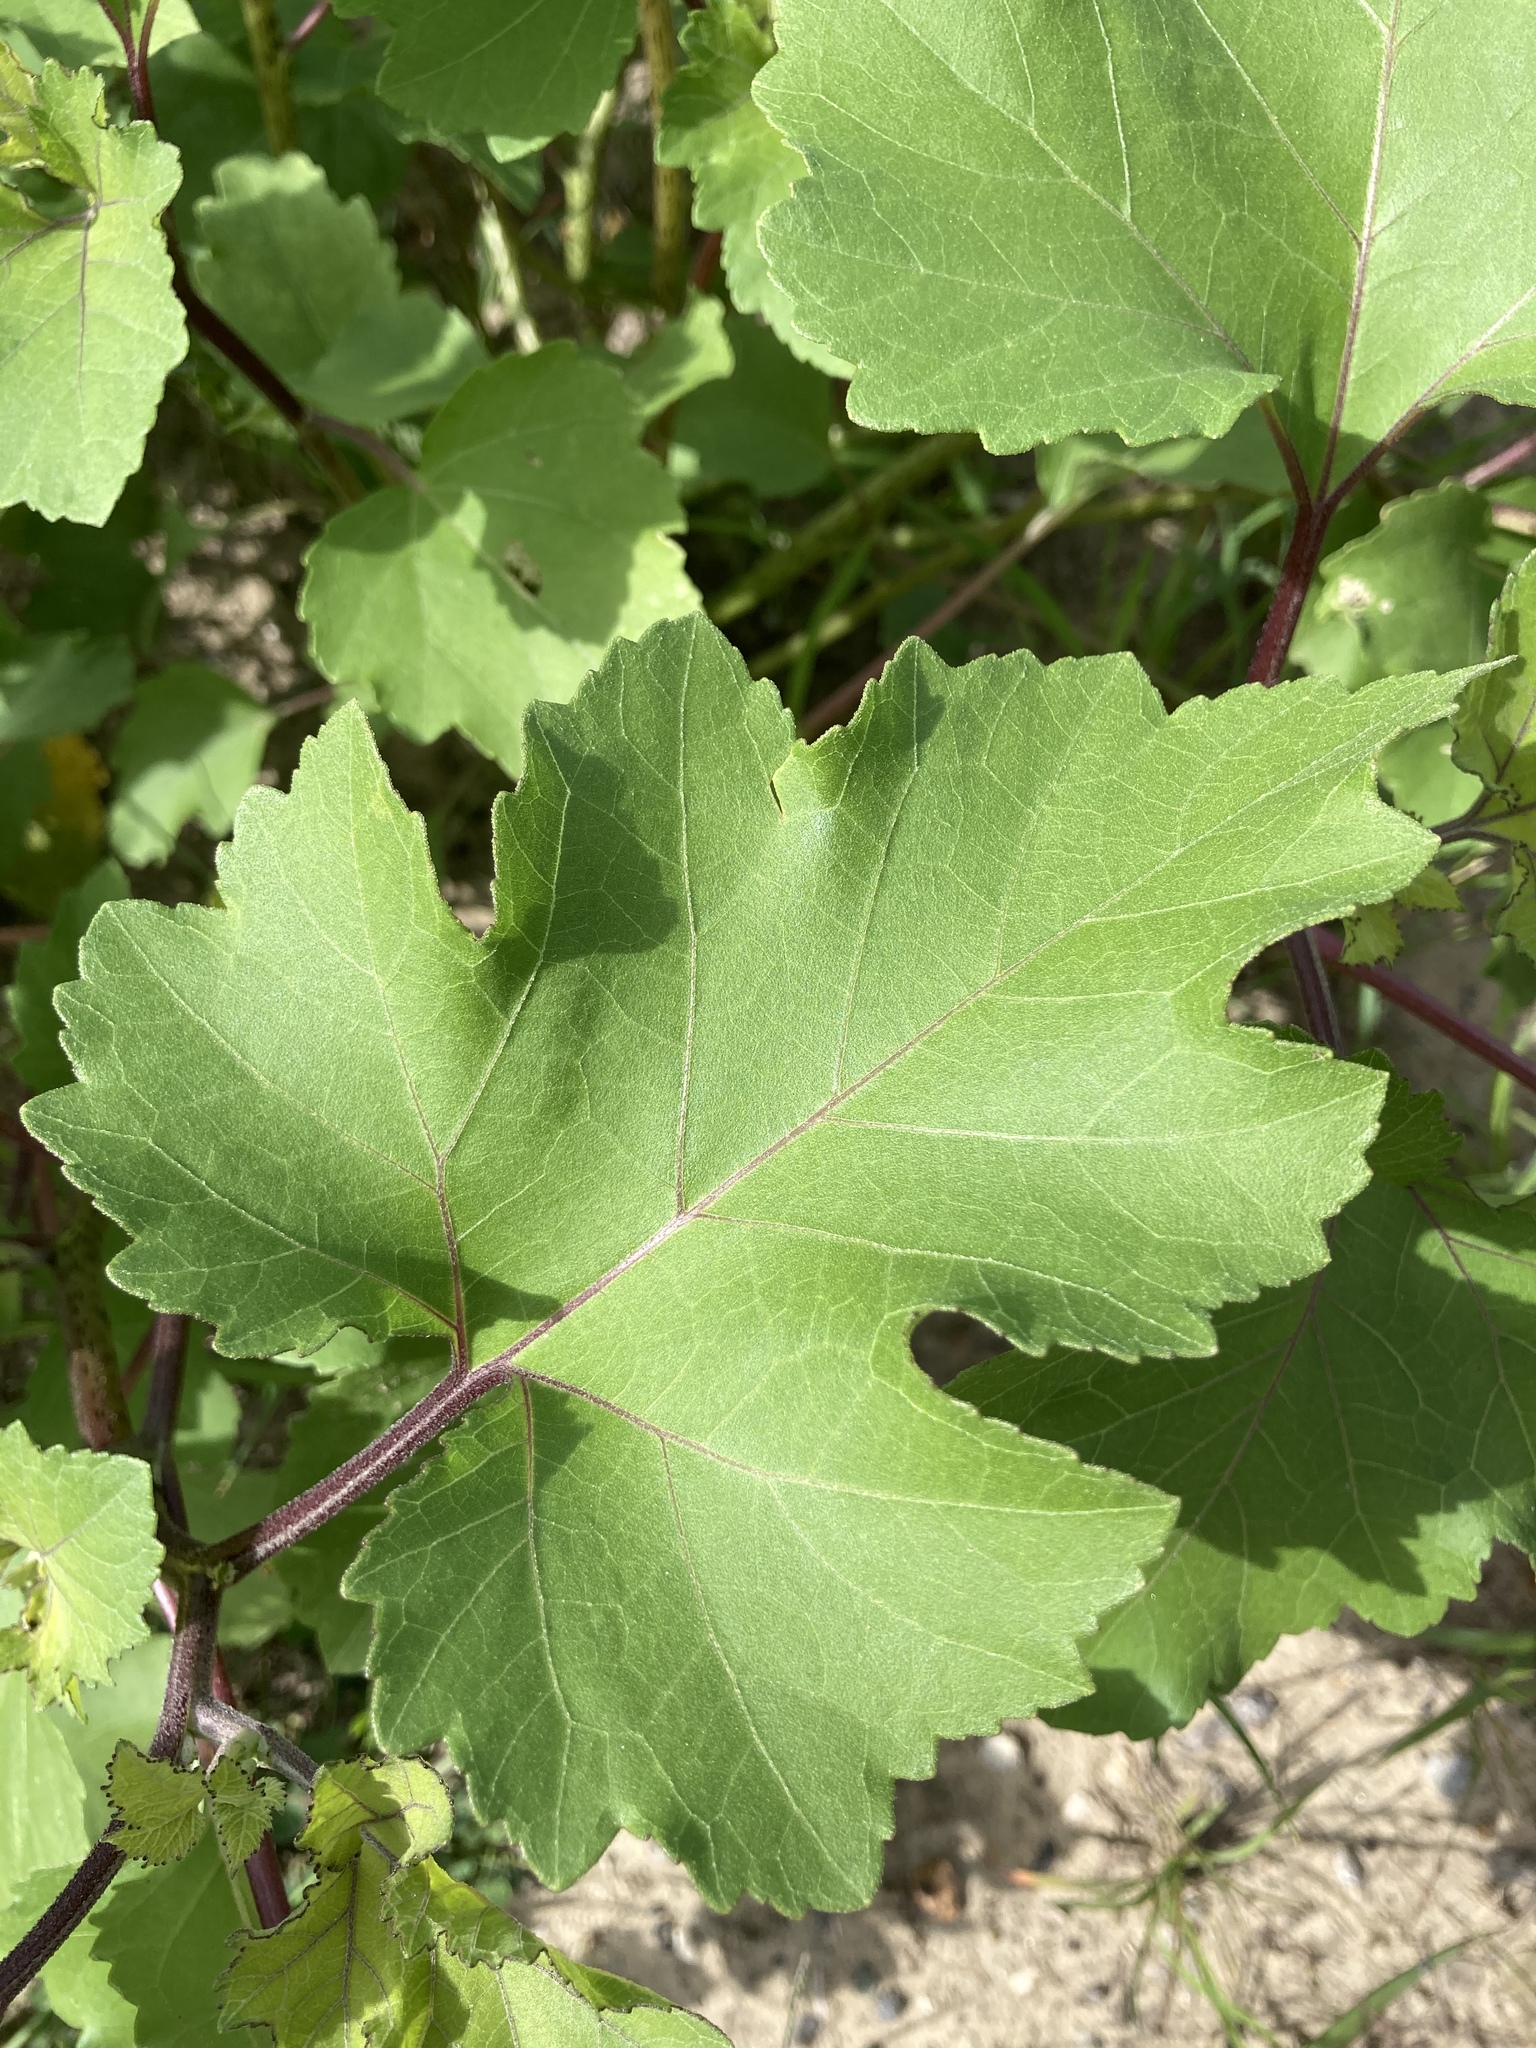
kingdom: Plantae
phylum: Tracheophyta
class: Magnoliopsida
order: Asterales
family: Asteraceae
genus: Xanthium
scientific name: Xanthium strumarium
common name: Rough cocklebur
